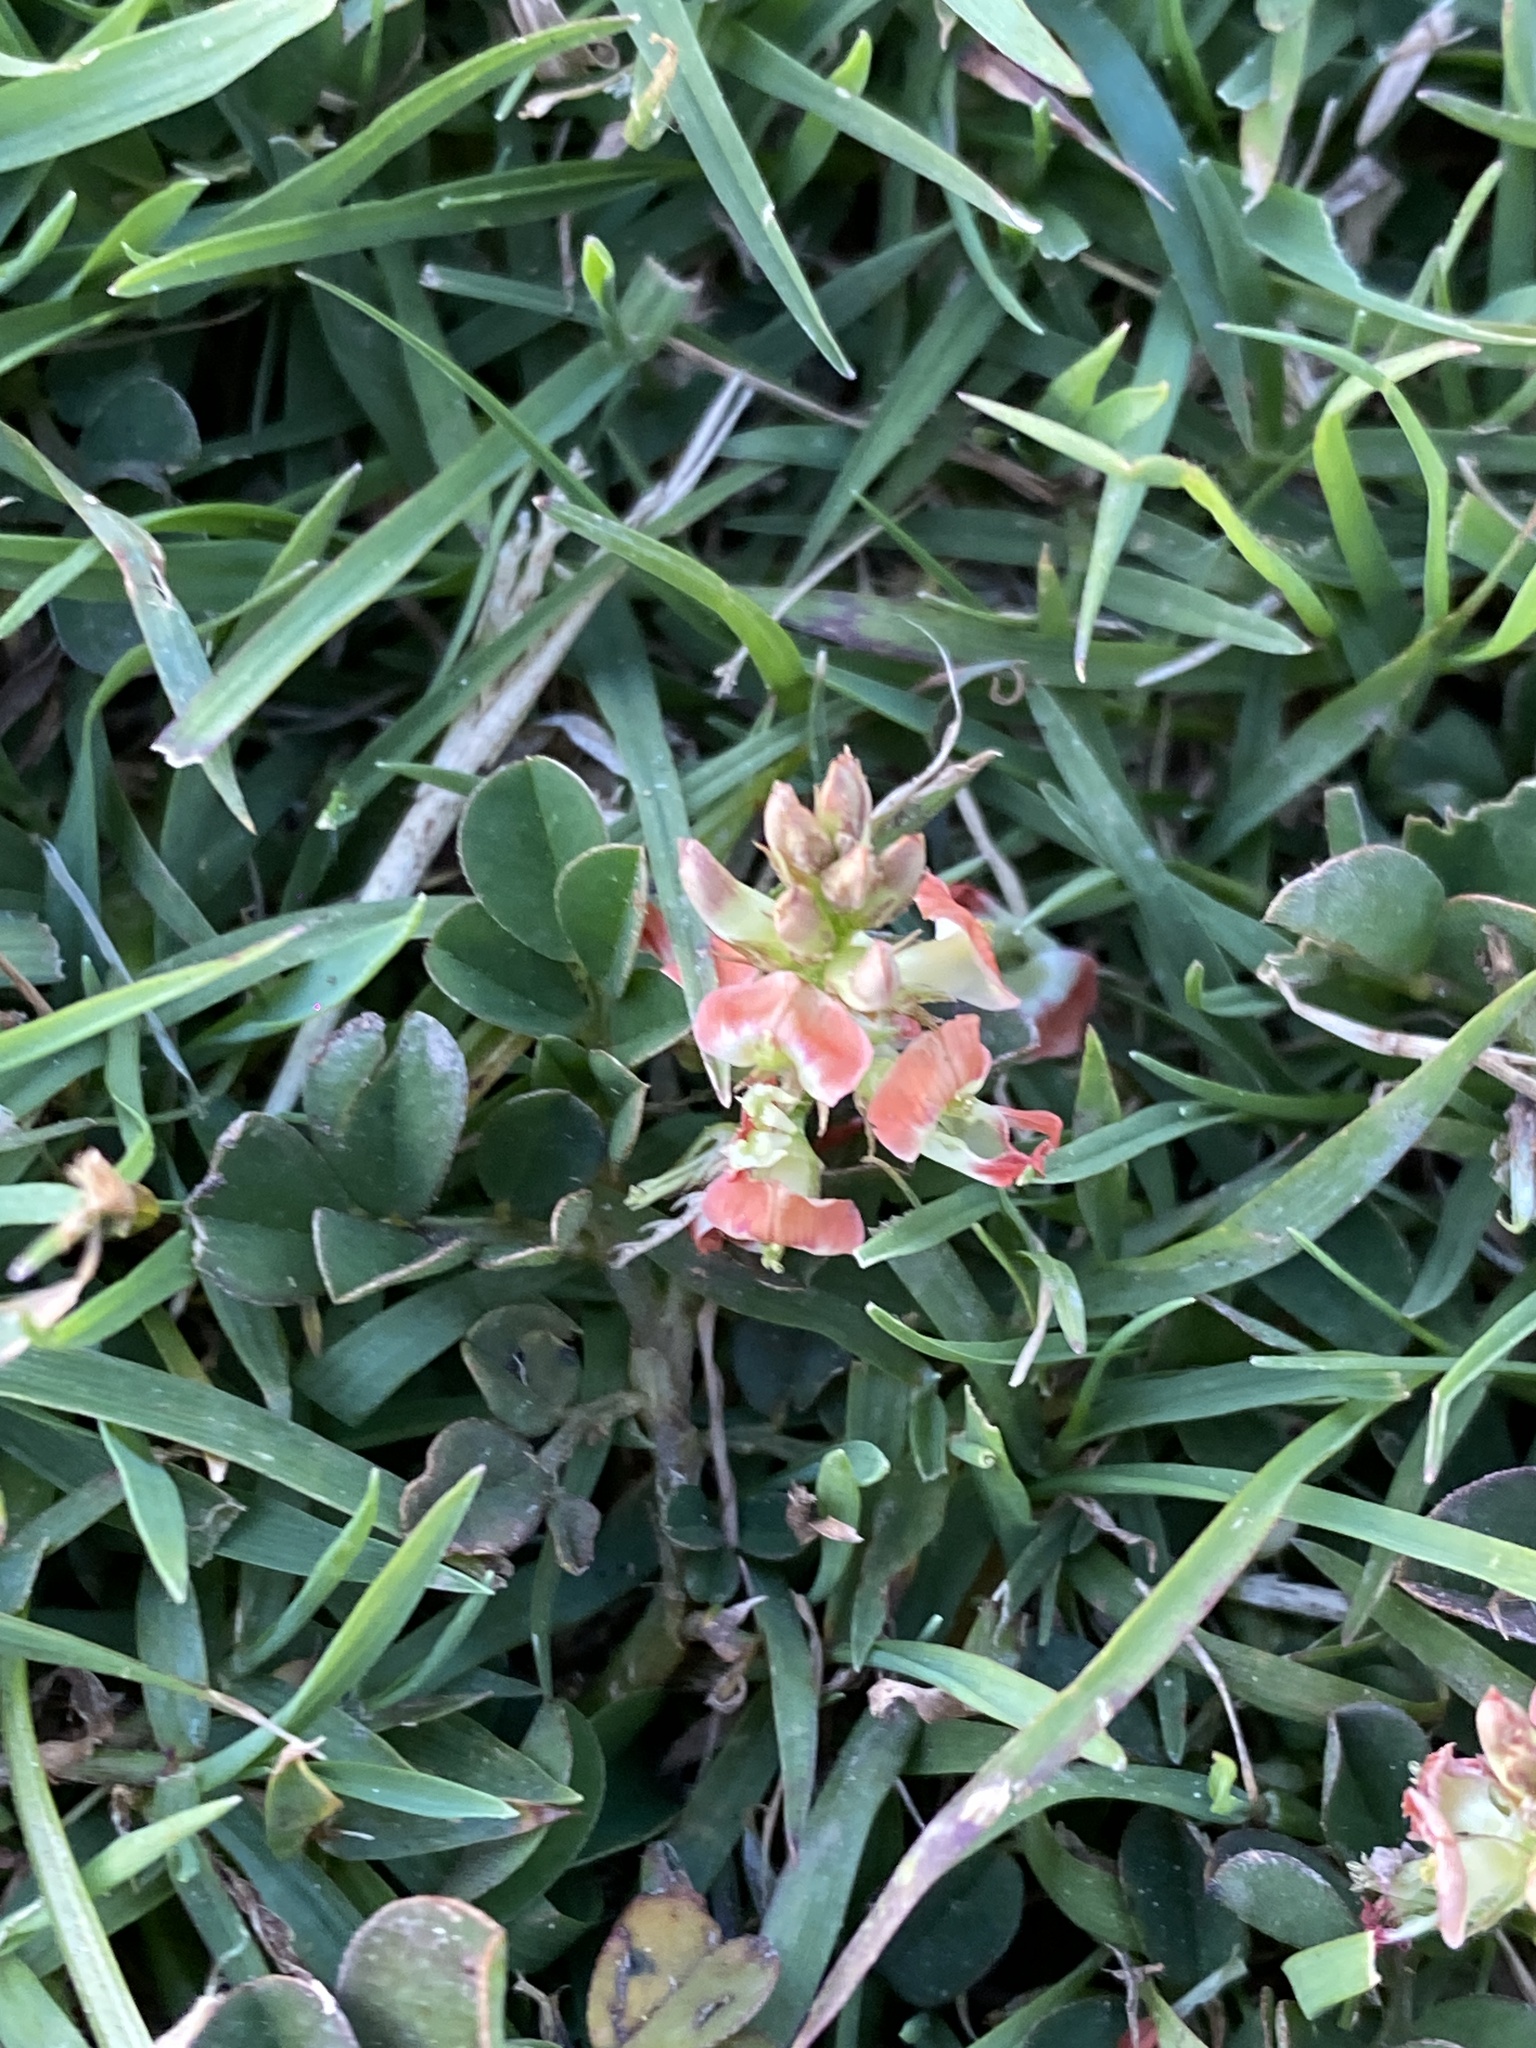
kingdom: Plantae
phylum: Tracheophyta
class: Magnoliopsida
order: Fabales
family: Fabaceae
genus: Indigofera
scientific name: Indigofera spicata
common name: Creeping indigo
